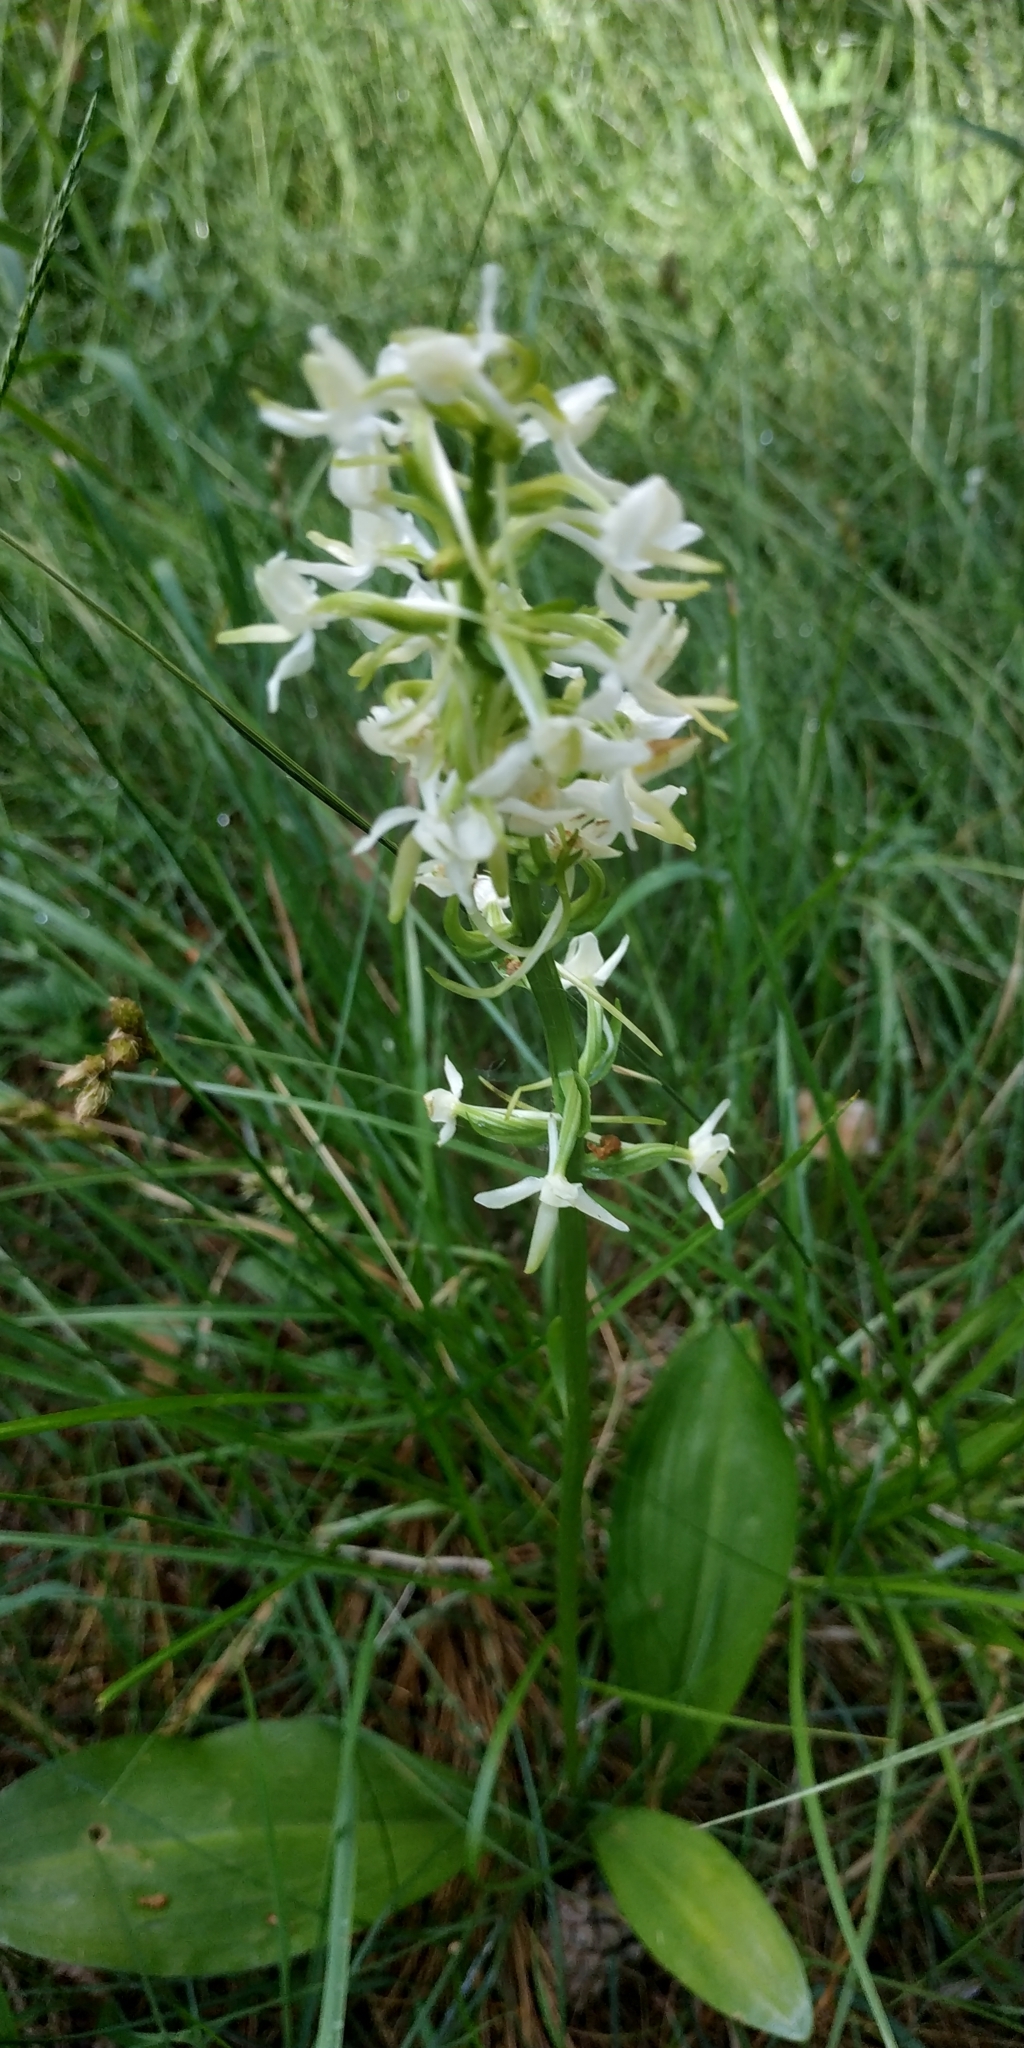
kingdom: Plantae
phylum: Tracheophyta
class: Liliopsida
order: Asparagales
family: Orchidaceae
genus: Platanthera
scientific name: Platanthera bifolia
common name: Lesser butterfly-orchid
